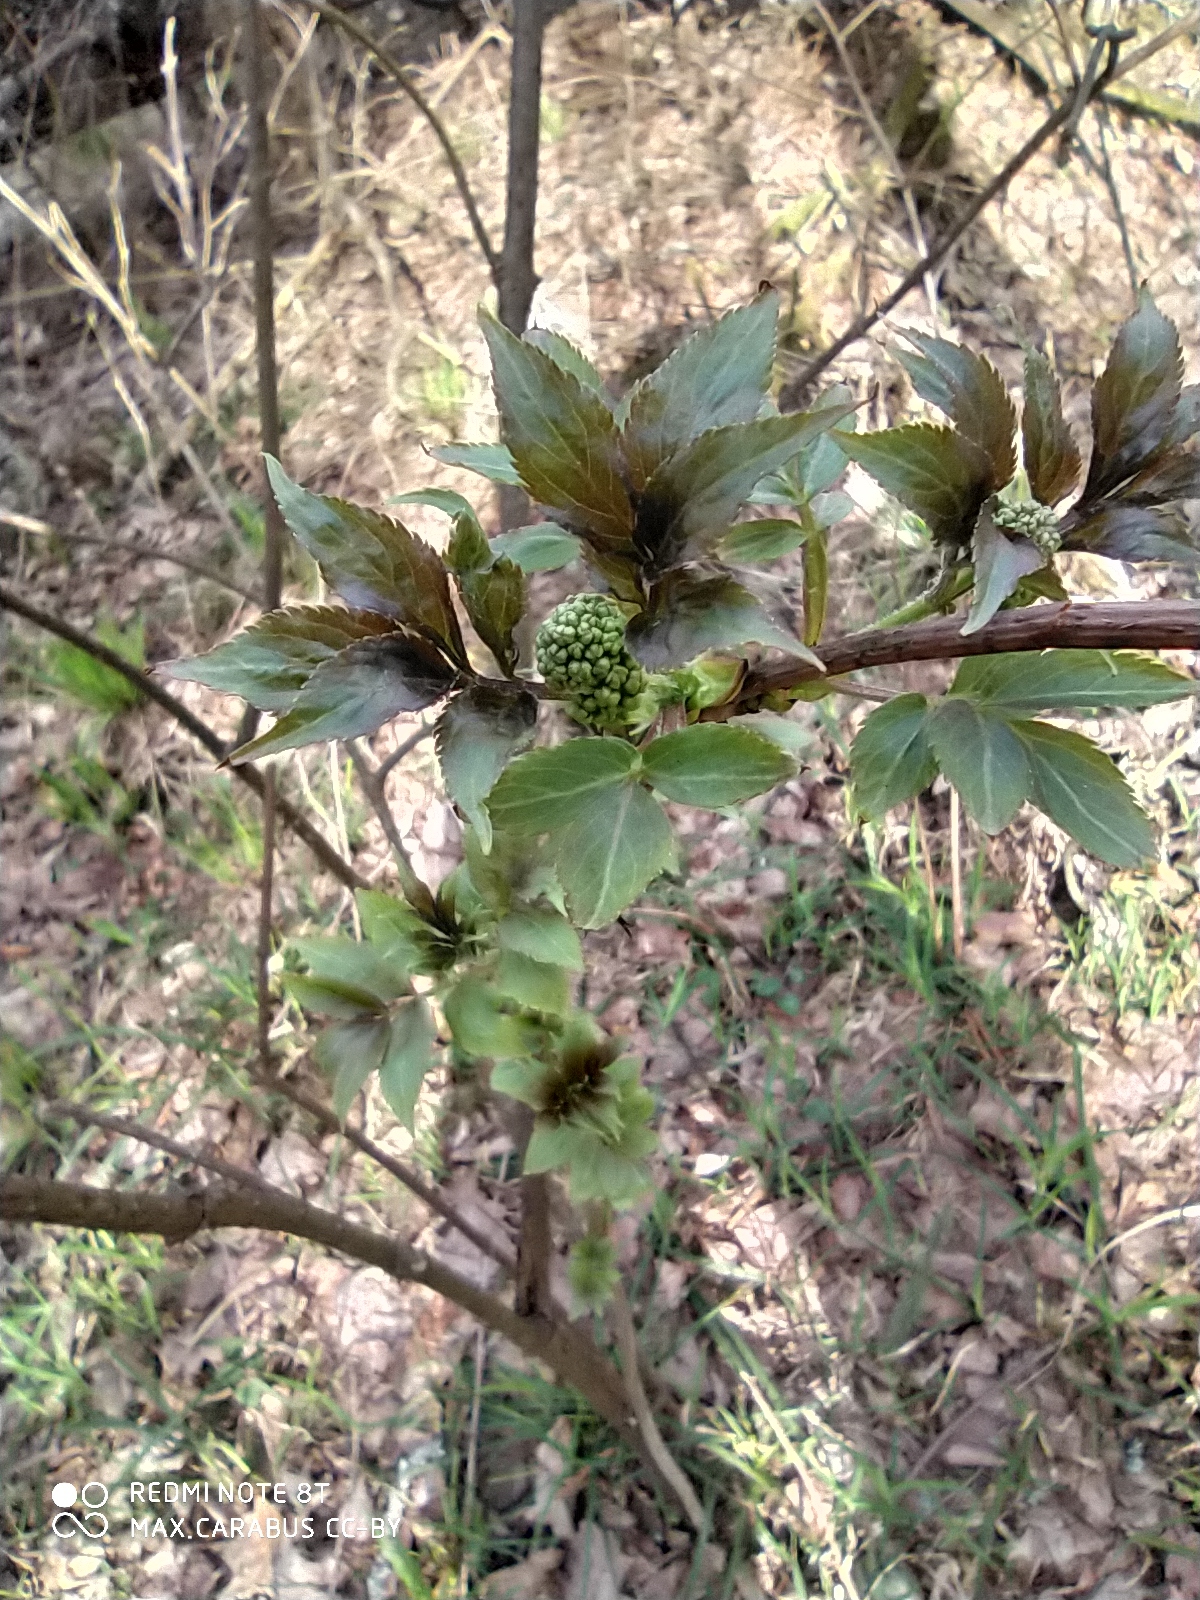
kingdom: Plantae
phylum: Tracheophyta
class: Magnoliopsida
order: Dipsacales
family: Viburnaceae
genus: Sambucus
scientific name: Sambucus racemosa
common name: Red-berried elder
